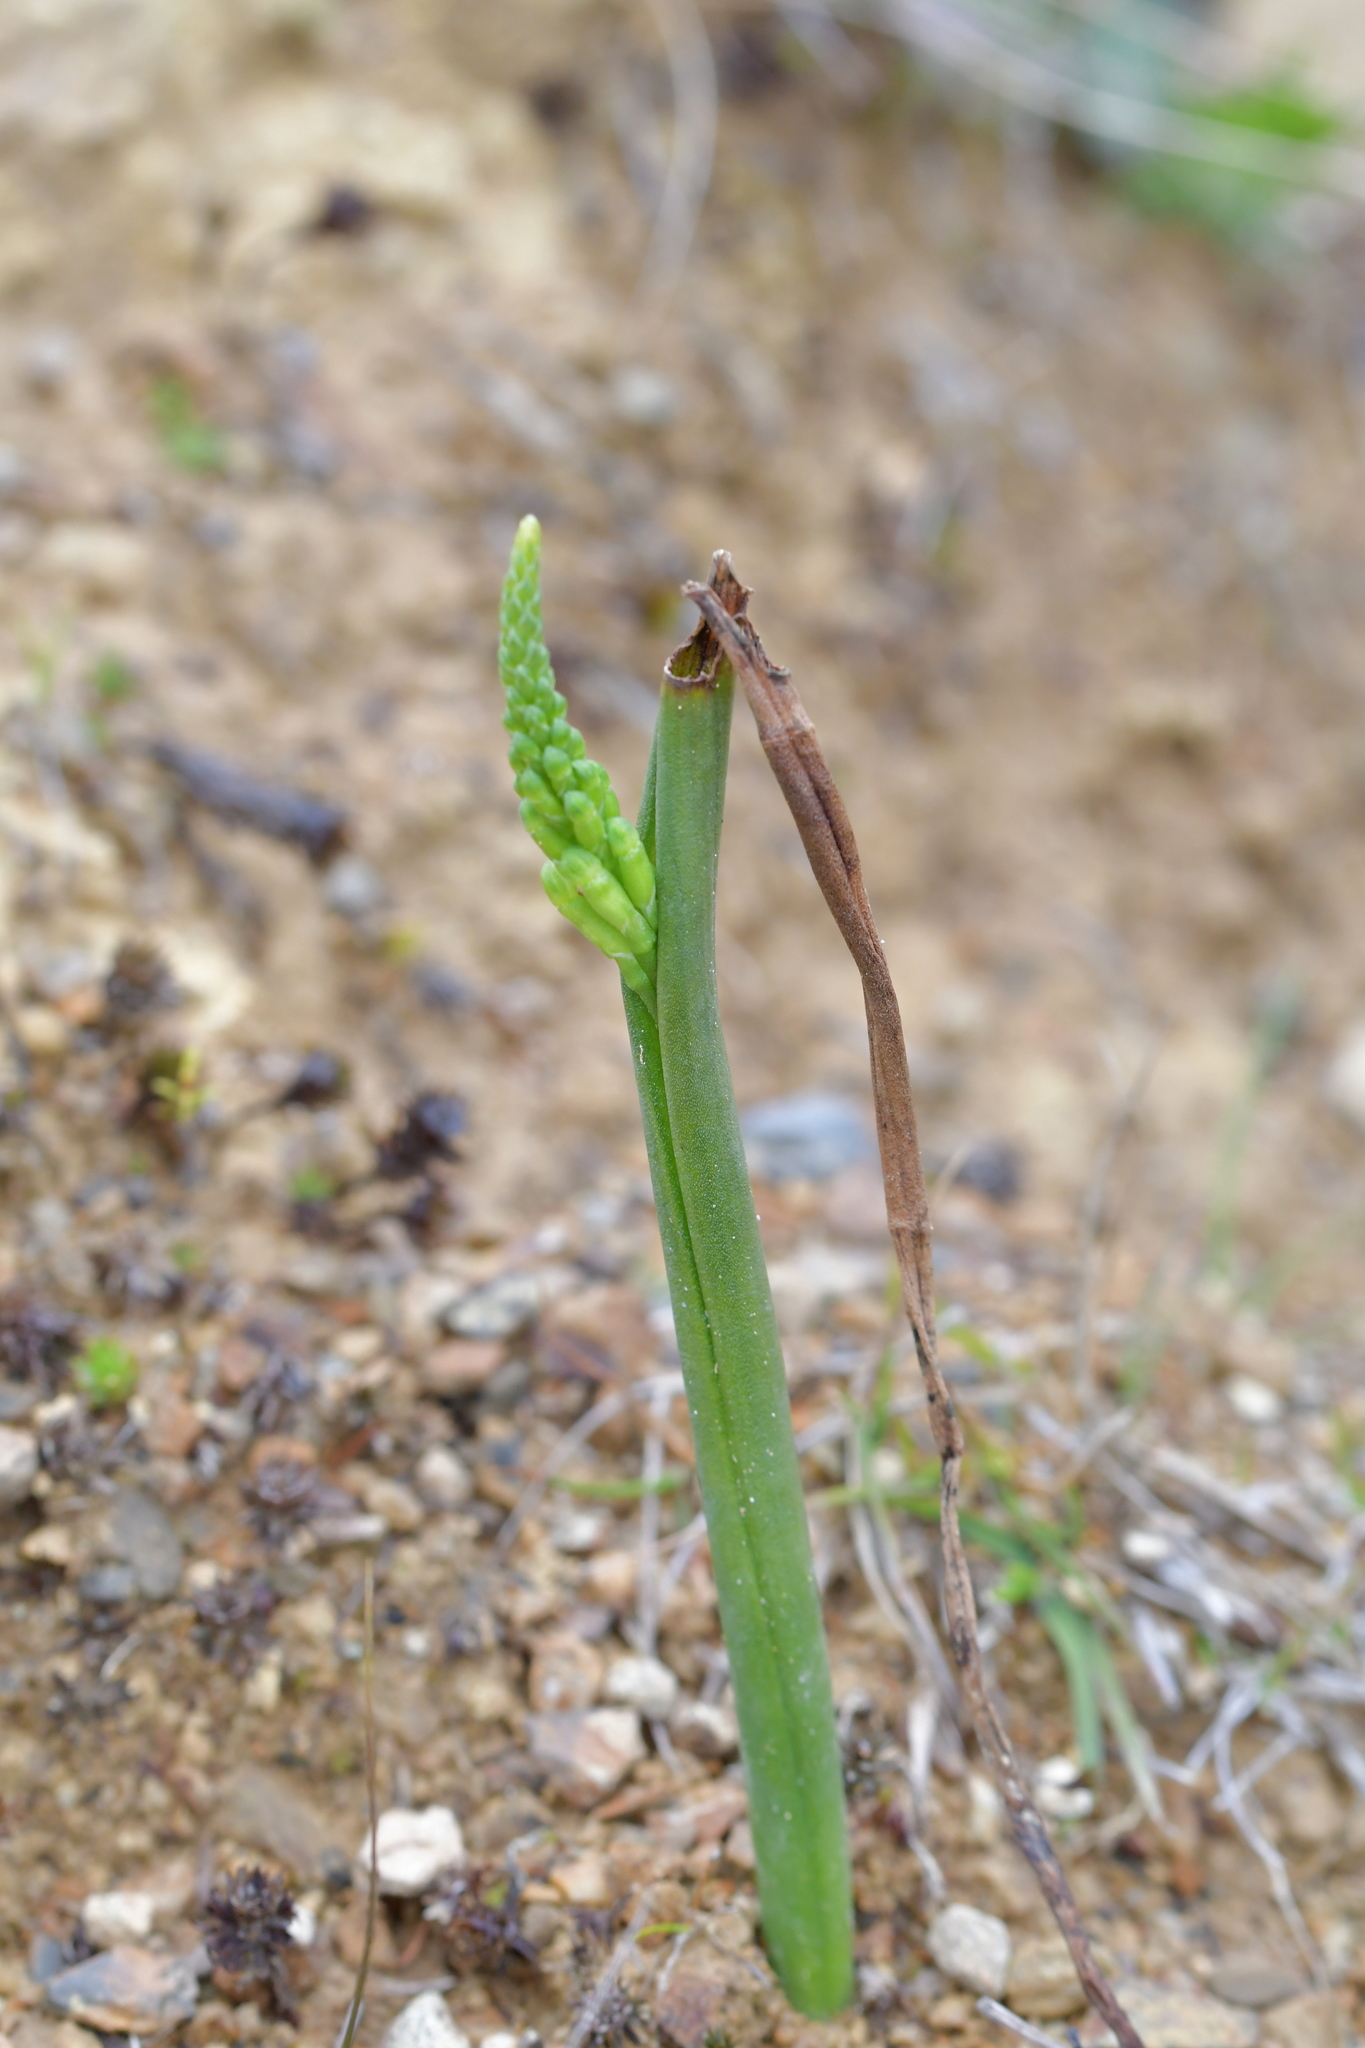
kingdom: Plantae
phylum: Tracheophyta
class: Liliopsida
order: Asparagales
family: Orchidaceae
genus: Microtis
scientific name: Microtis unifolia
